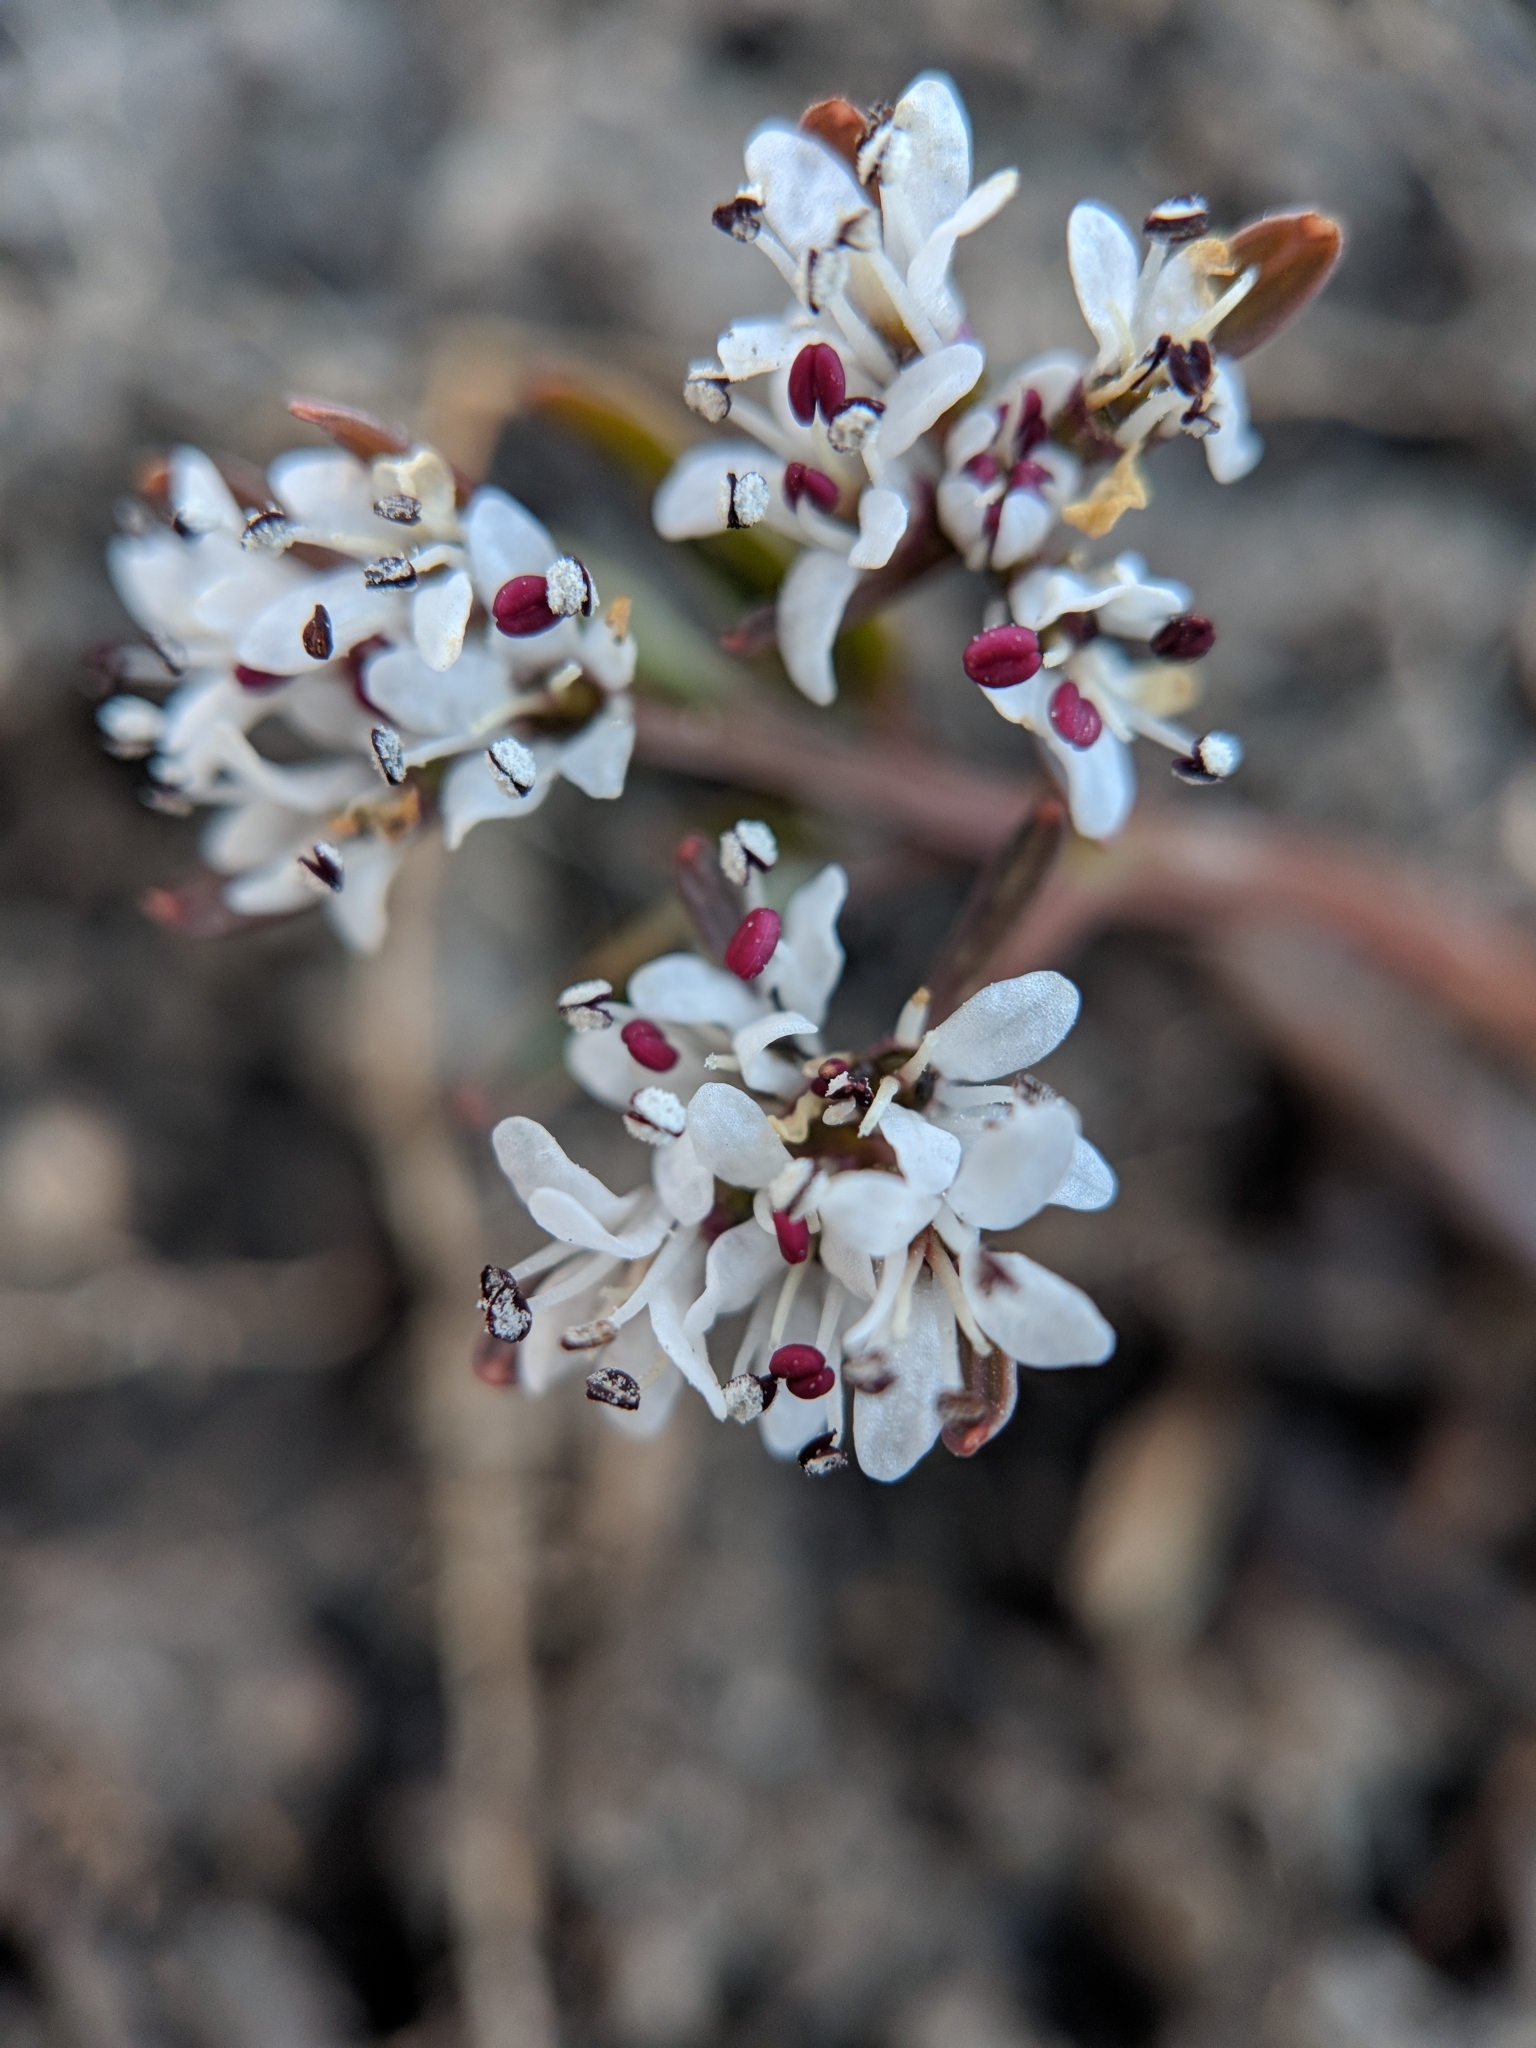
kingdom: Plantae
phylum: Tracheophyta
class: Magnoliopsida
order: Apiales
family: Apiaceae
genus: Erigenia
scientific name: Erigenia bulbosa
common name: Pepper-and-salt
